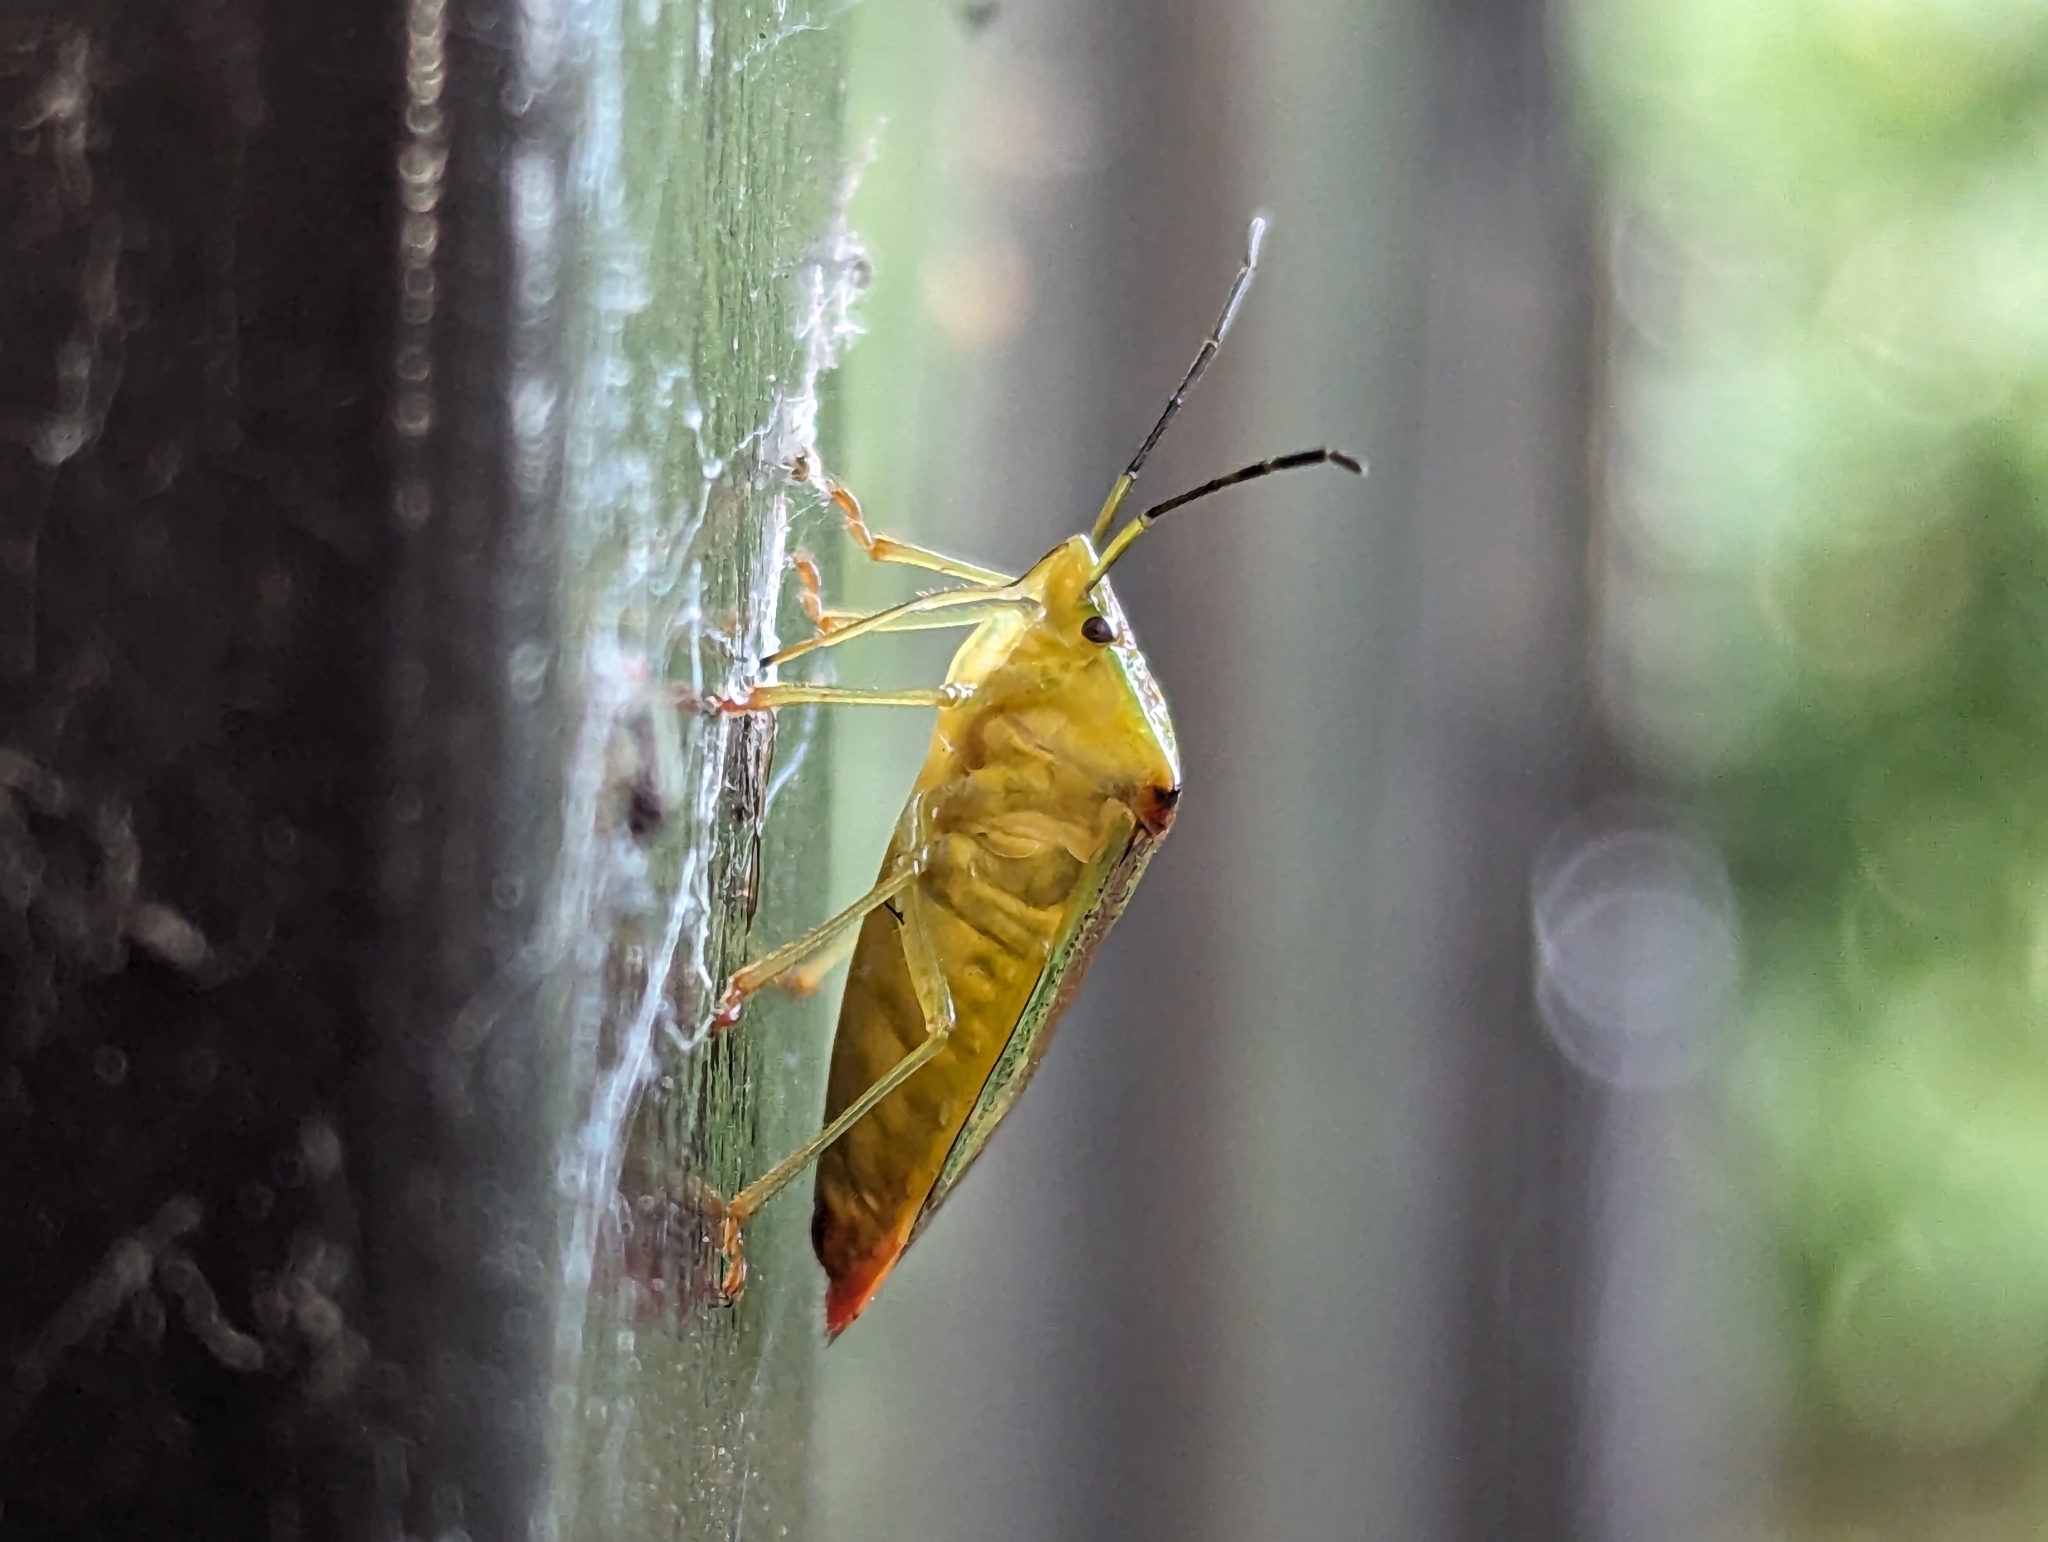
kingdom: Animalia
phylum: Arthropoda
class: Insecta
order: Hemiptera
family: Acanthosomatidae
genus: Acanthosoma
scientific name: Acanthosoma haemorrhoidale
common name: Hawthorn shieldbug
